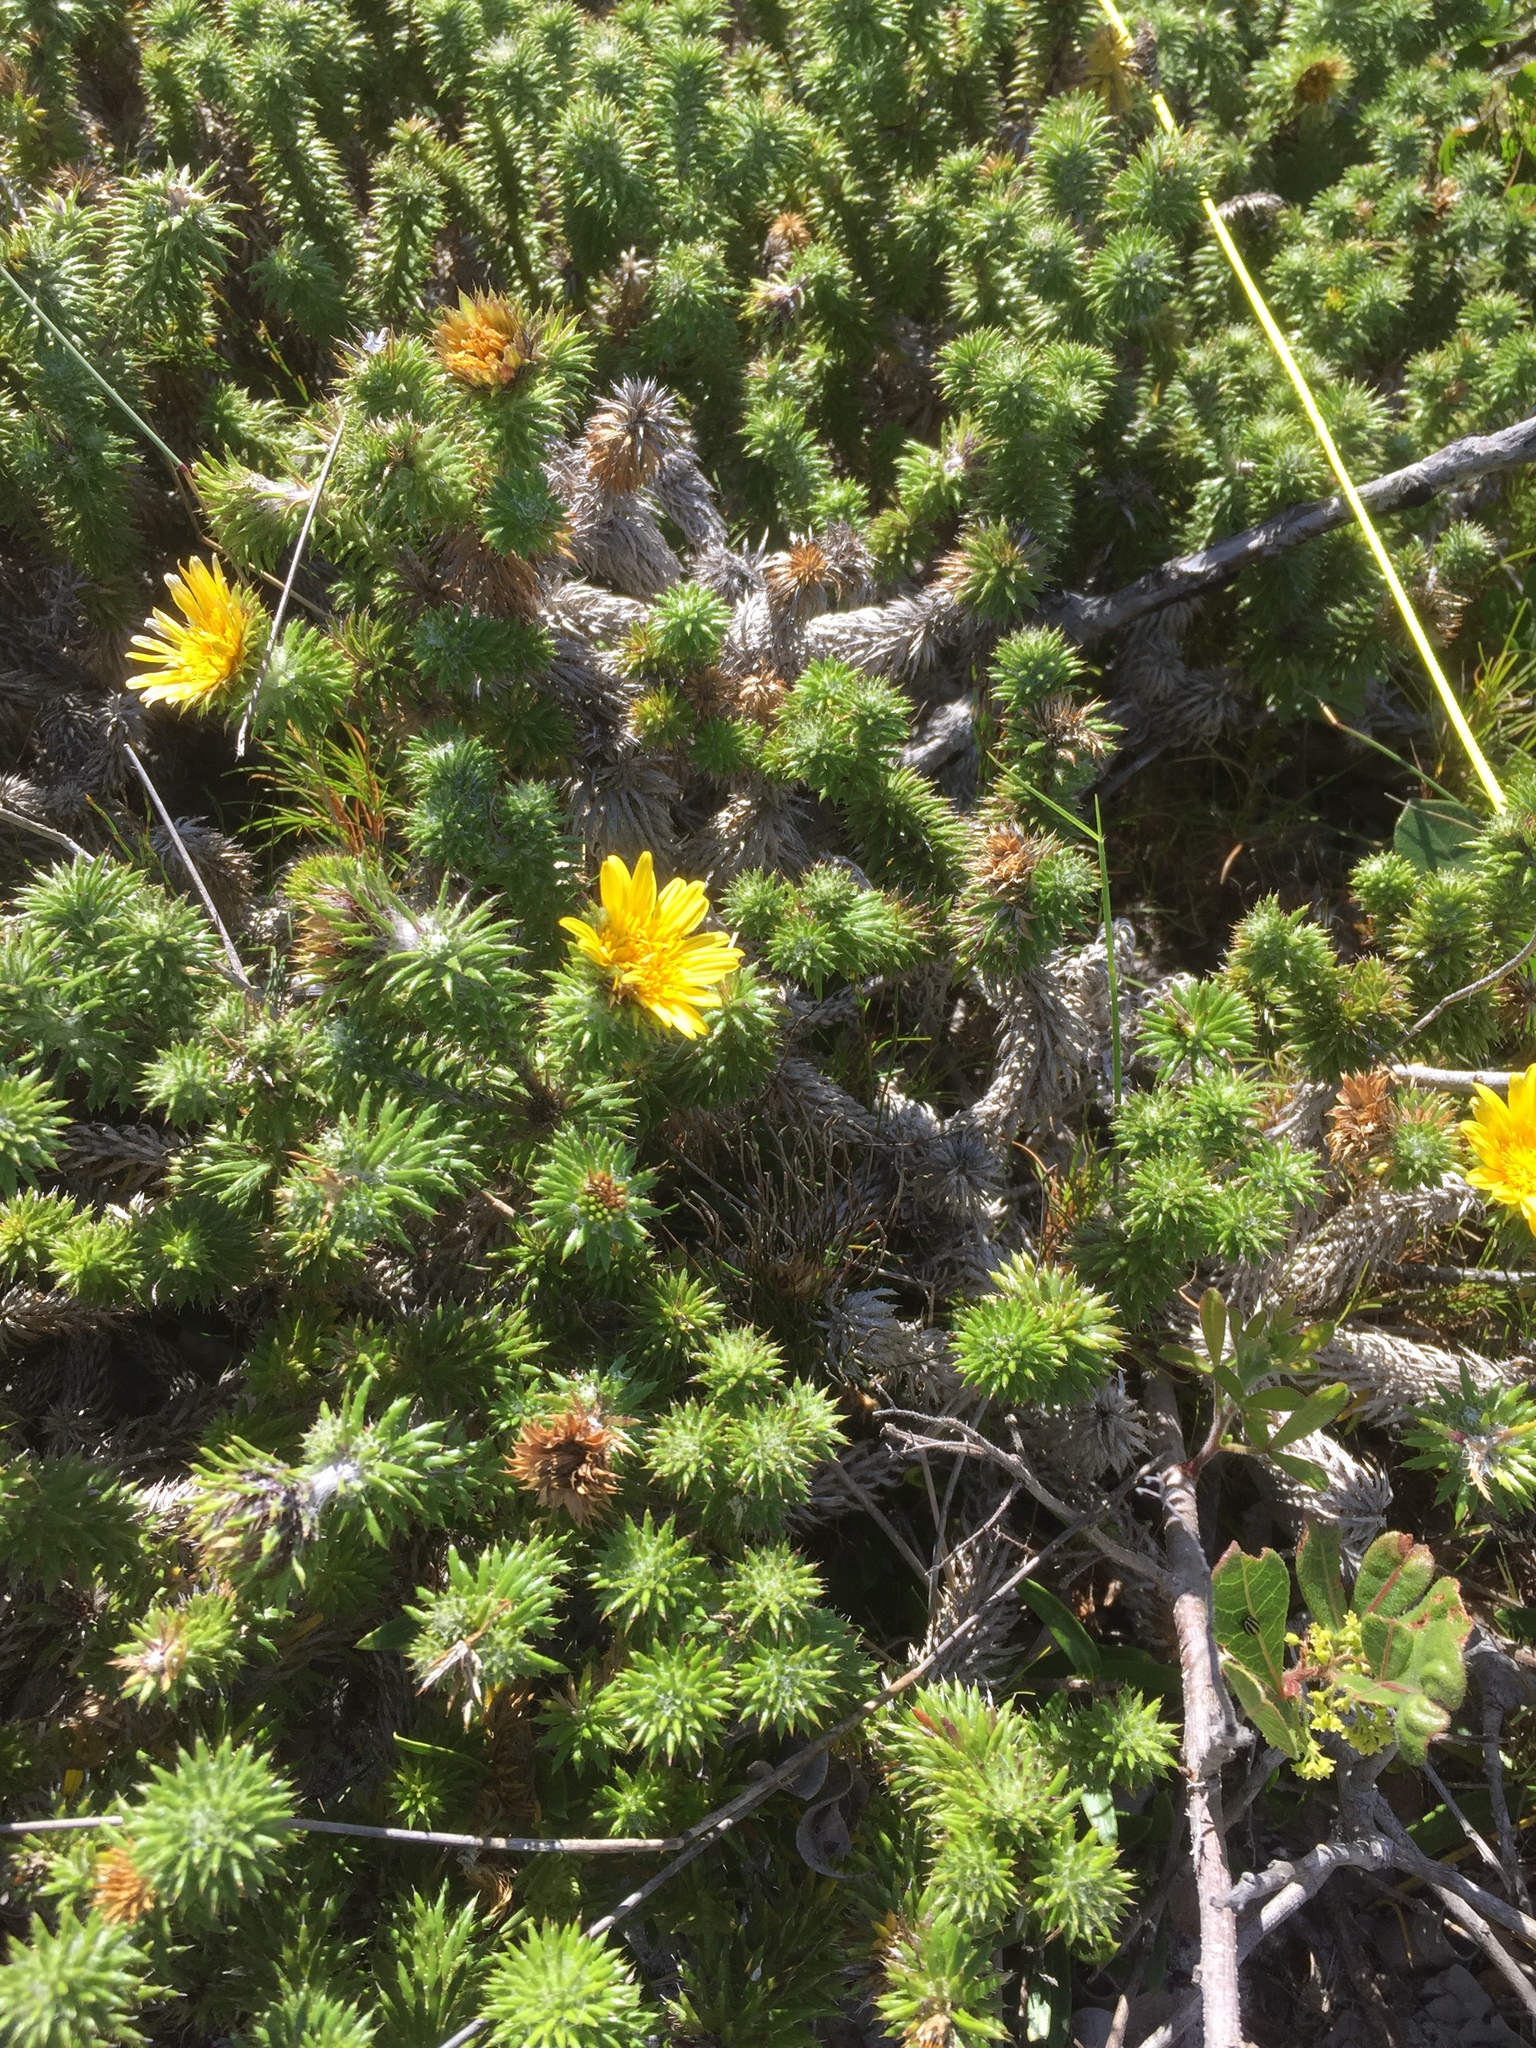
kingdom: Plantae
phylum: Tracheophyta
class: Magnoliopsida
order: Asterales
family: Asteraceae
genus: Cullumia
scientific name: Cullumia squarrosa
